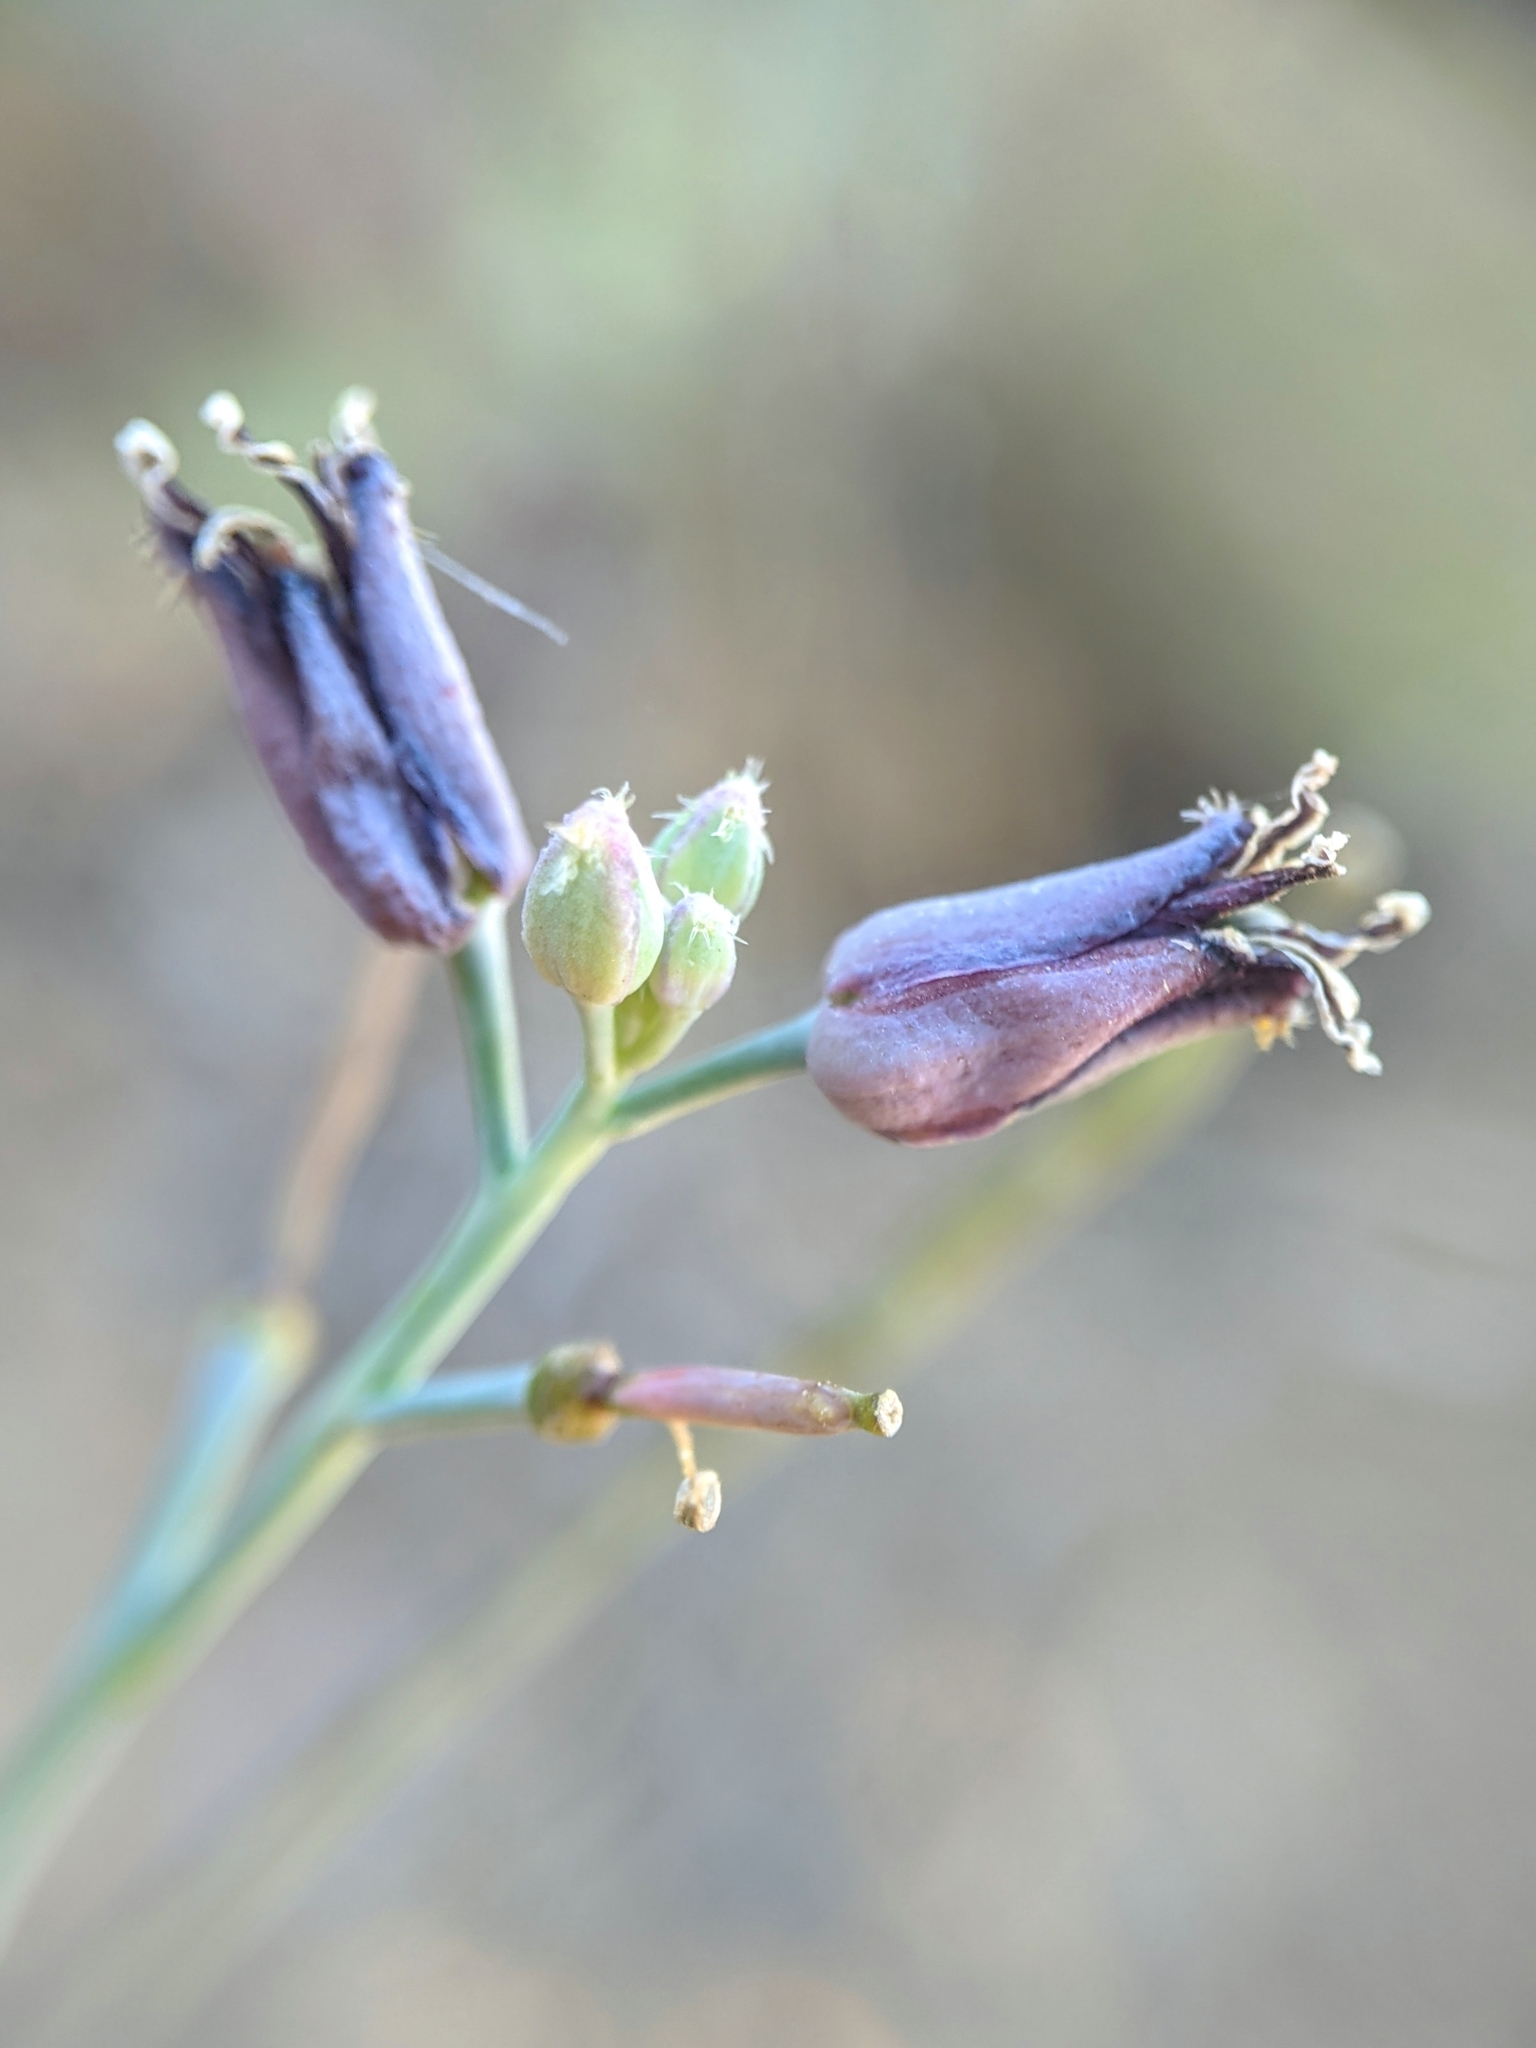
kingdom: Plantae
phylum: Tracheophyta
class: Magnoliopsida
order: Brassicales
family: Brassicaceae
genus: Streptanthus
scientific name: Streptanthus barbatus
